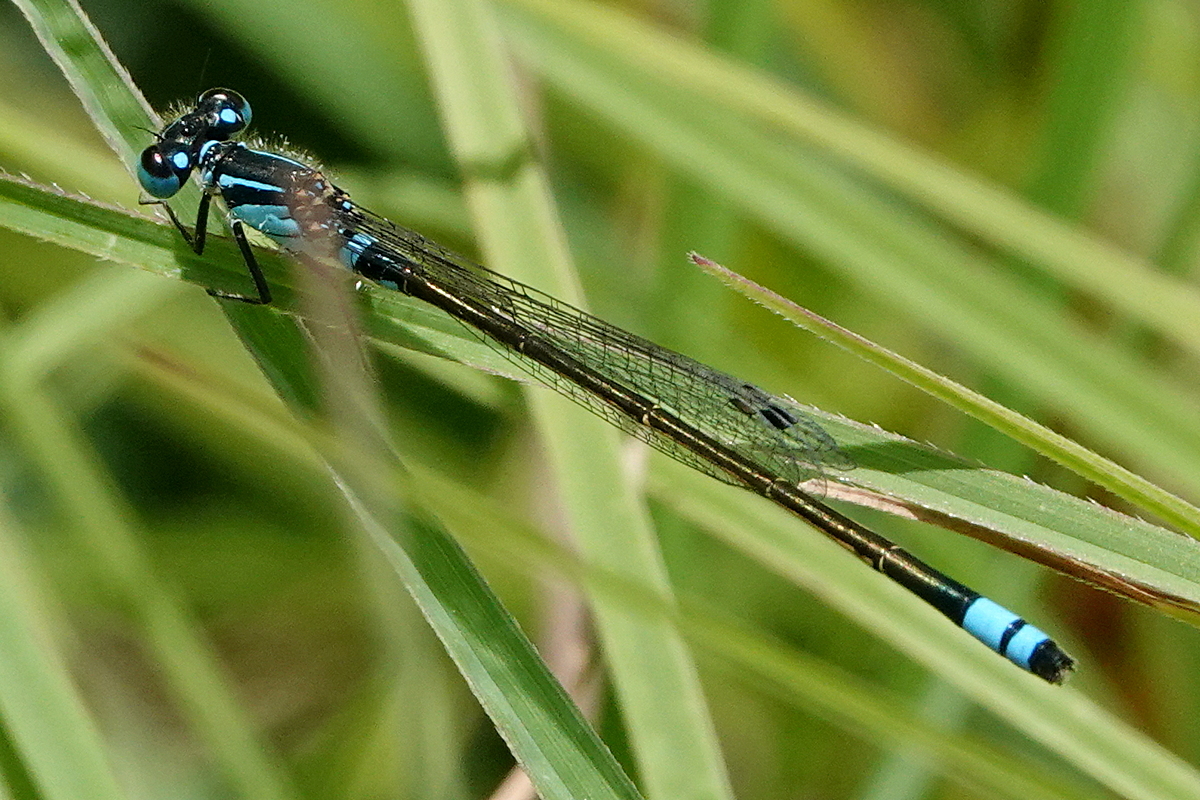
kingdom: Animalia
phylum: Arthropoda
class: Insecta
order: Odonata
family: Coenagrionidae
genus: Ischnura
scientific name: Ischnura heterosticta
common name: Common bluetail
